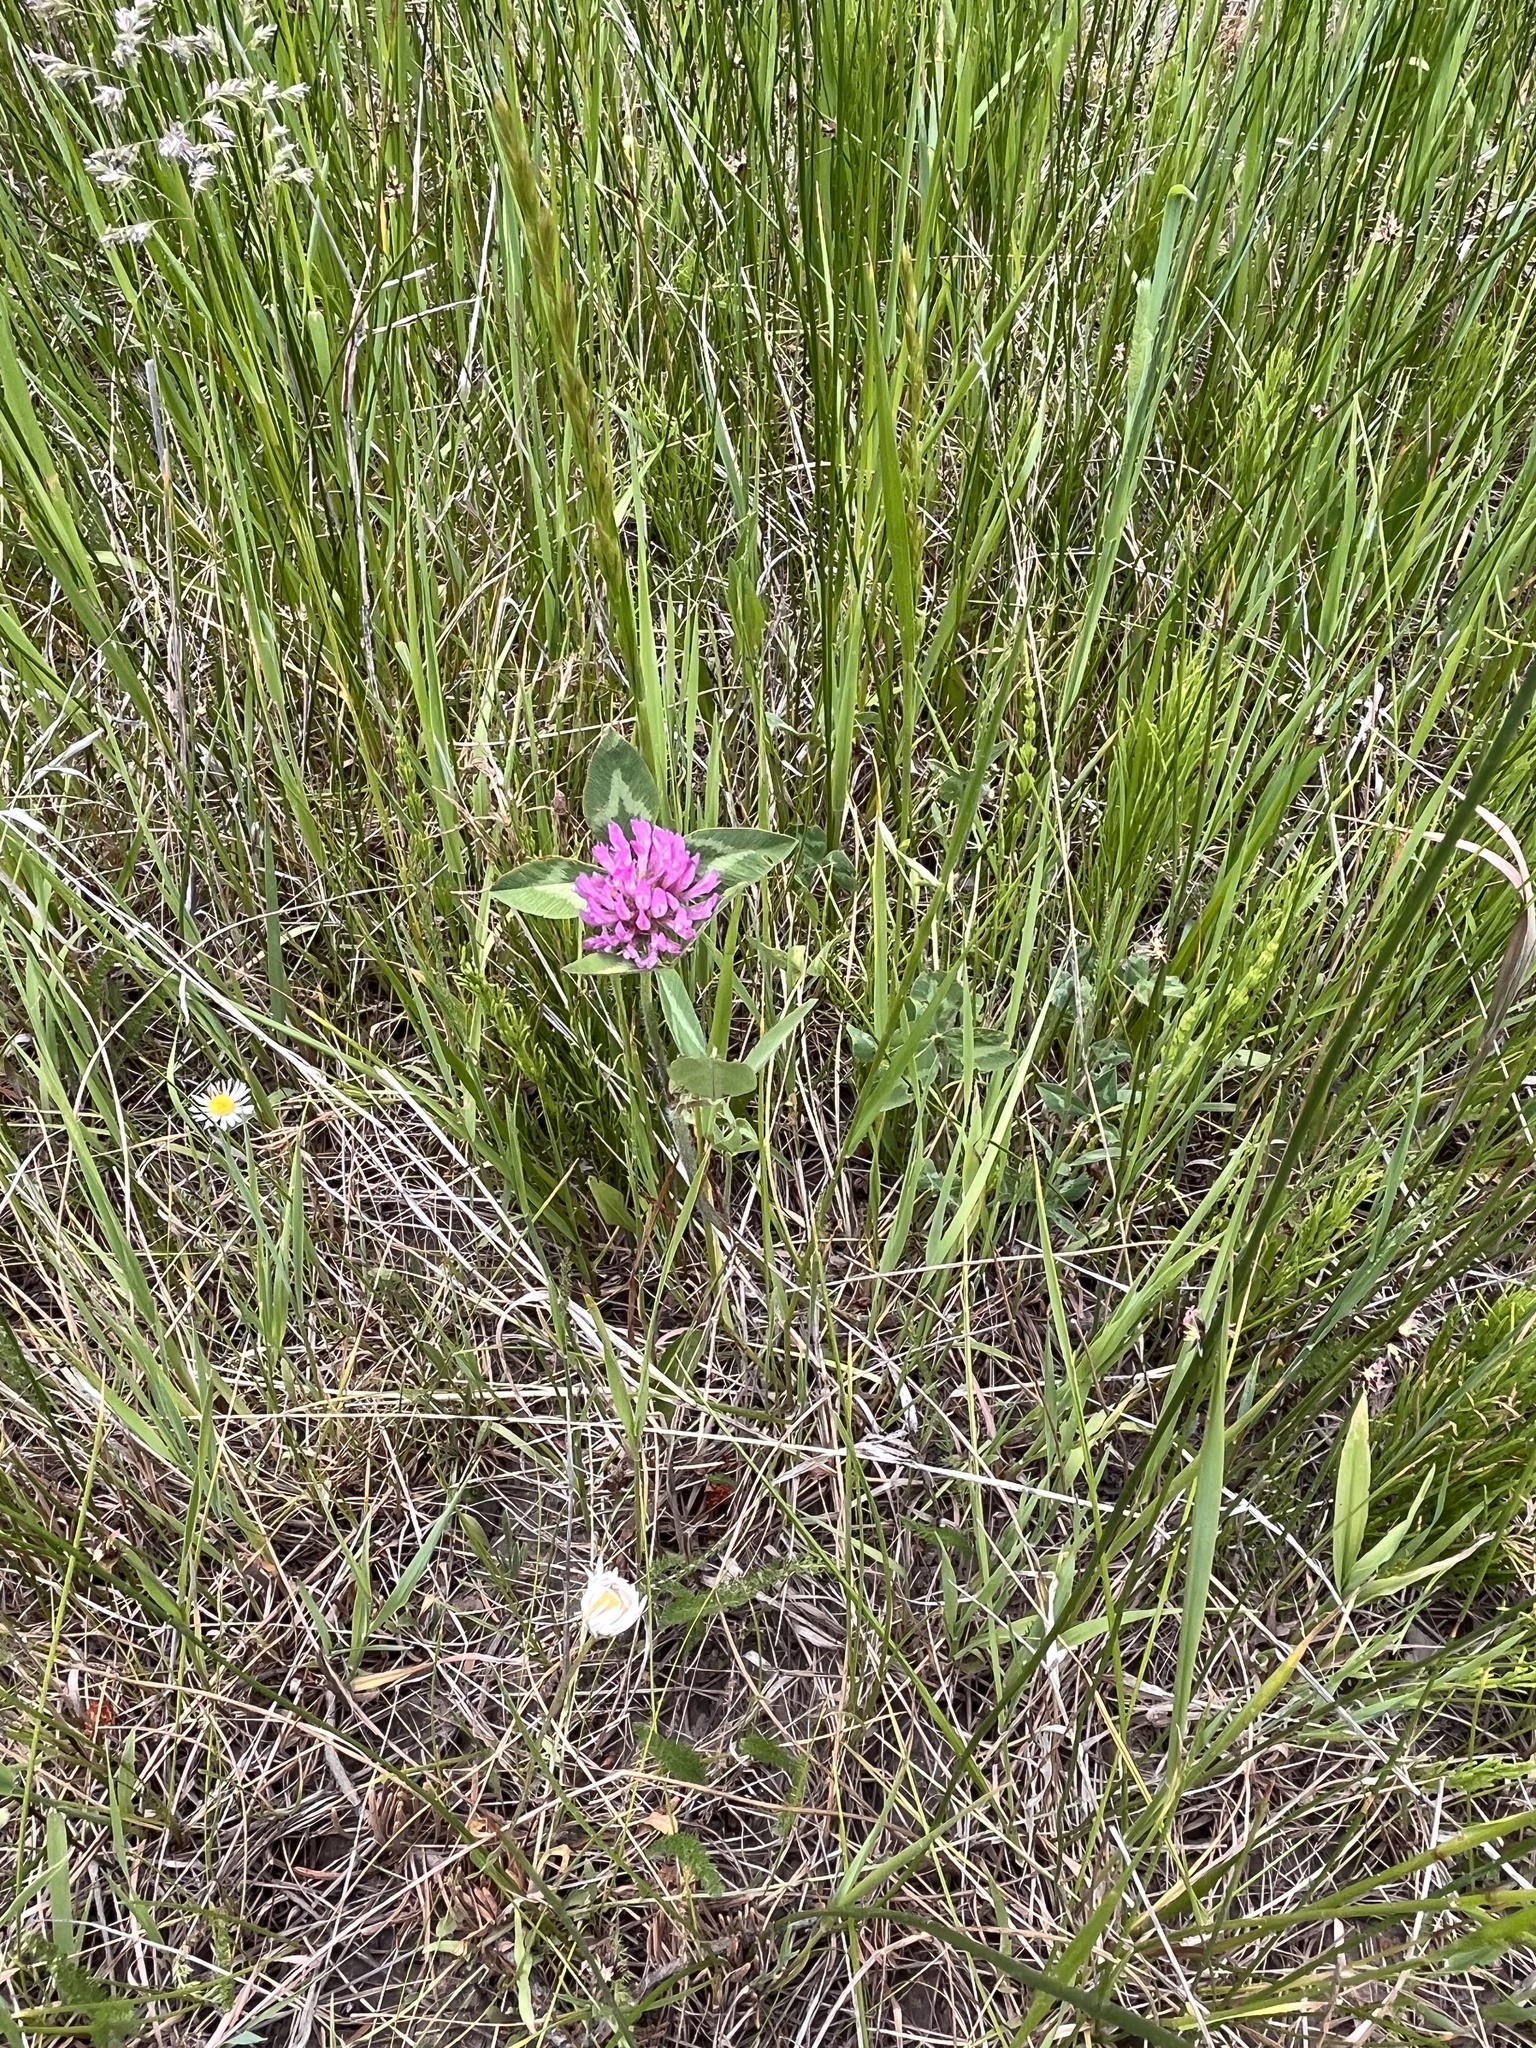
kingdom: Plantae
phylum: Tracheophyta
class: Magnoliopsida
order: Fabales
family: Fabaceae
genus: Trifolium
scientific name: Trifolium pratense
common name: Red clover
